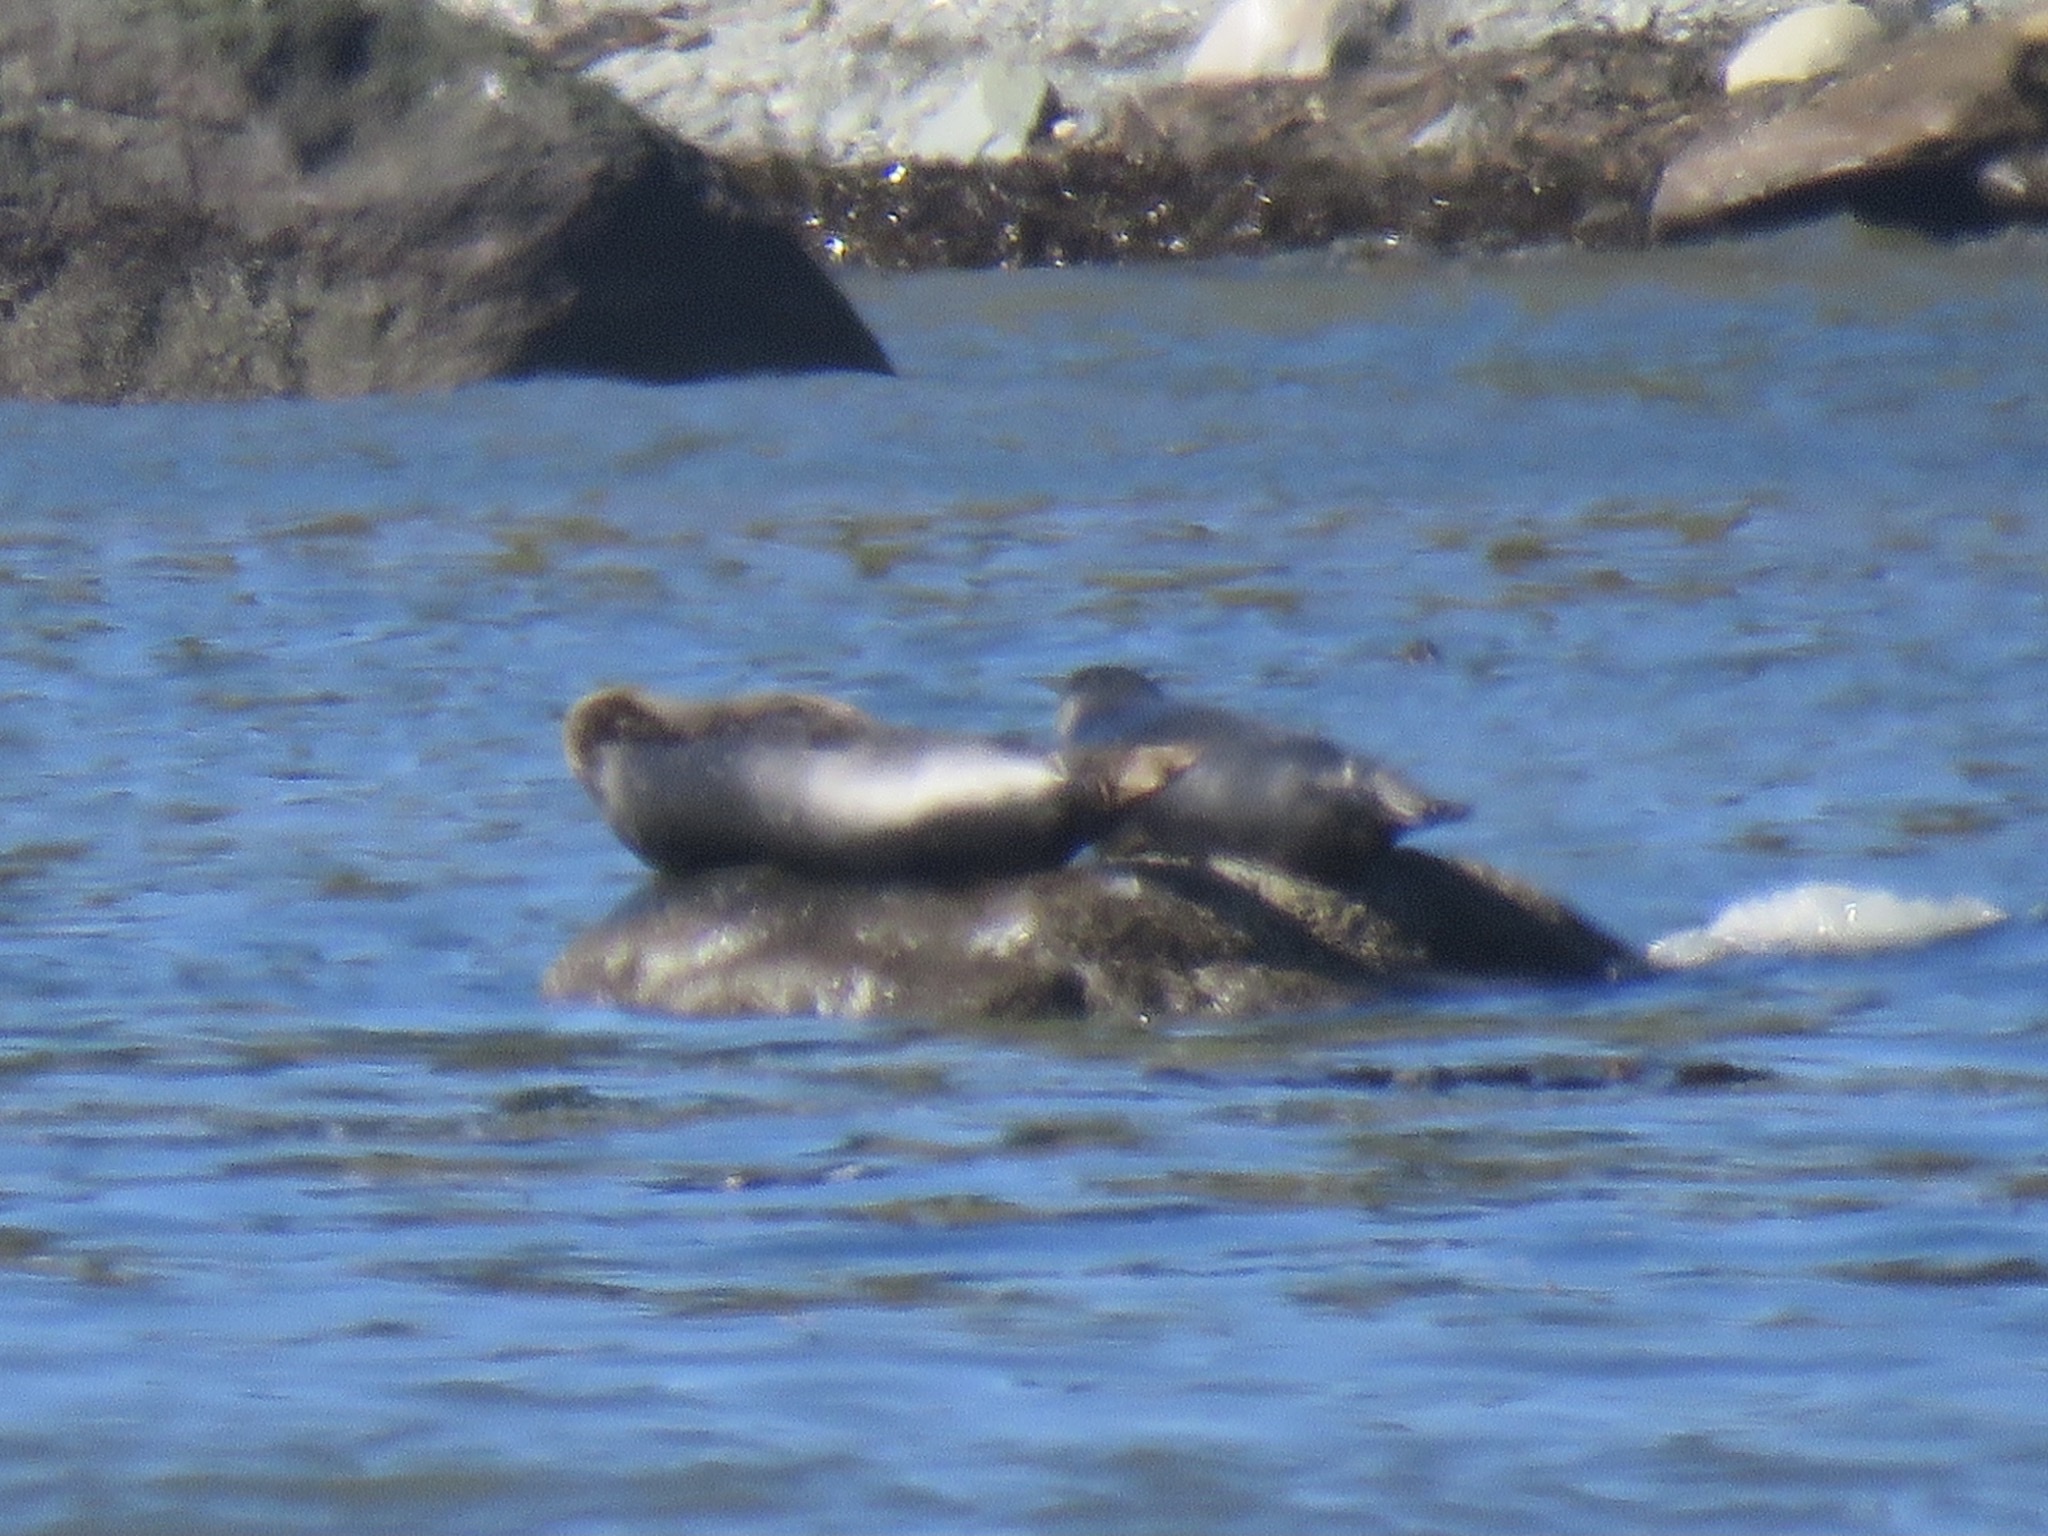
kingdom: Animalia
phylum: Chordata
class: Mammalia
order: Carnivora
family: Phocidae
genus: Phoca
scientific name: Phoca vitulina
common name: Harbor seal
